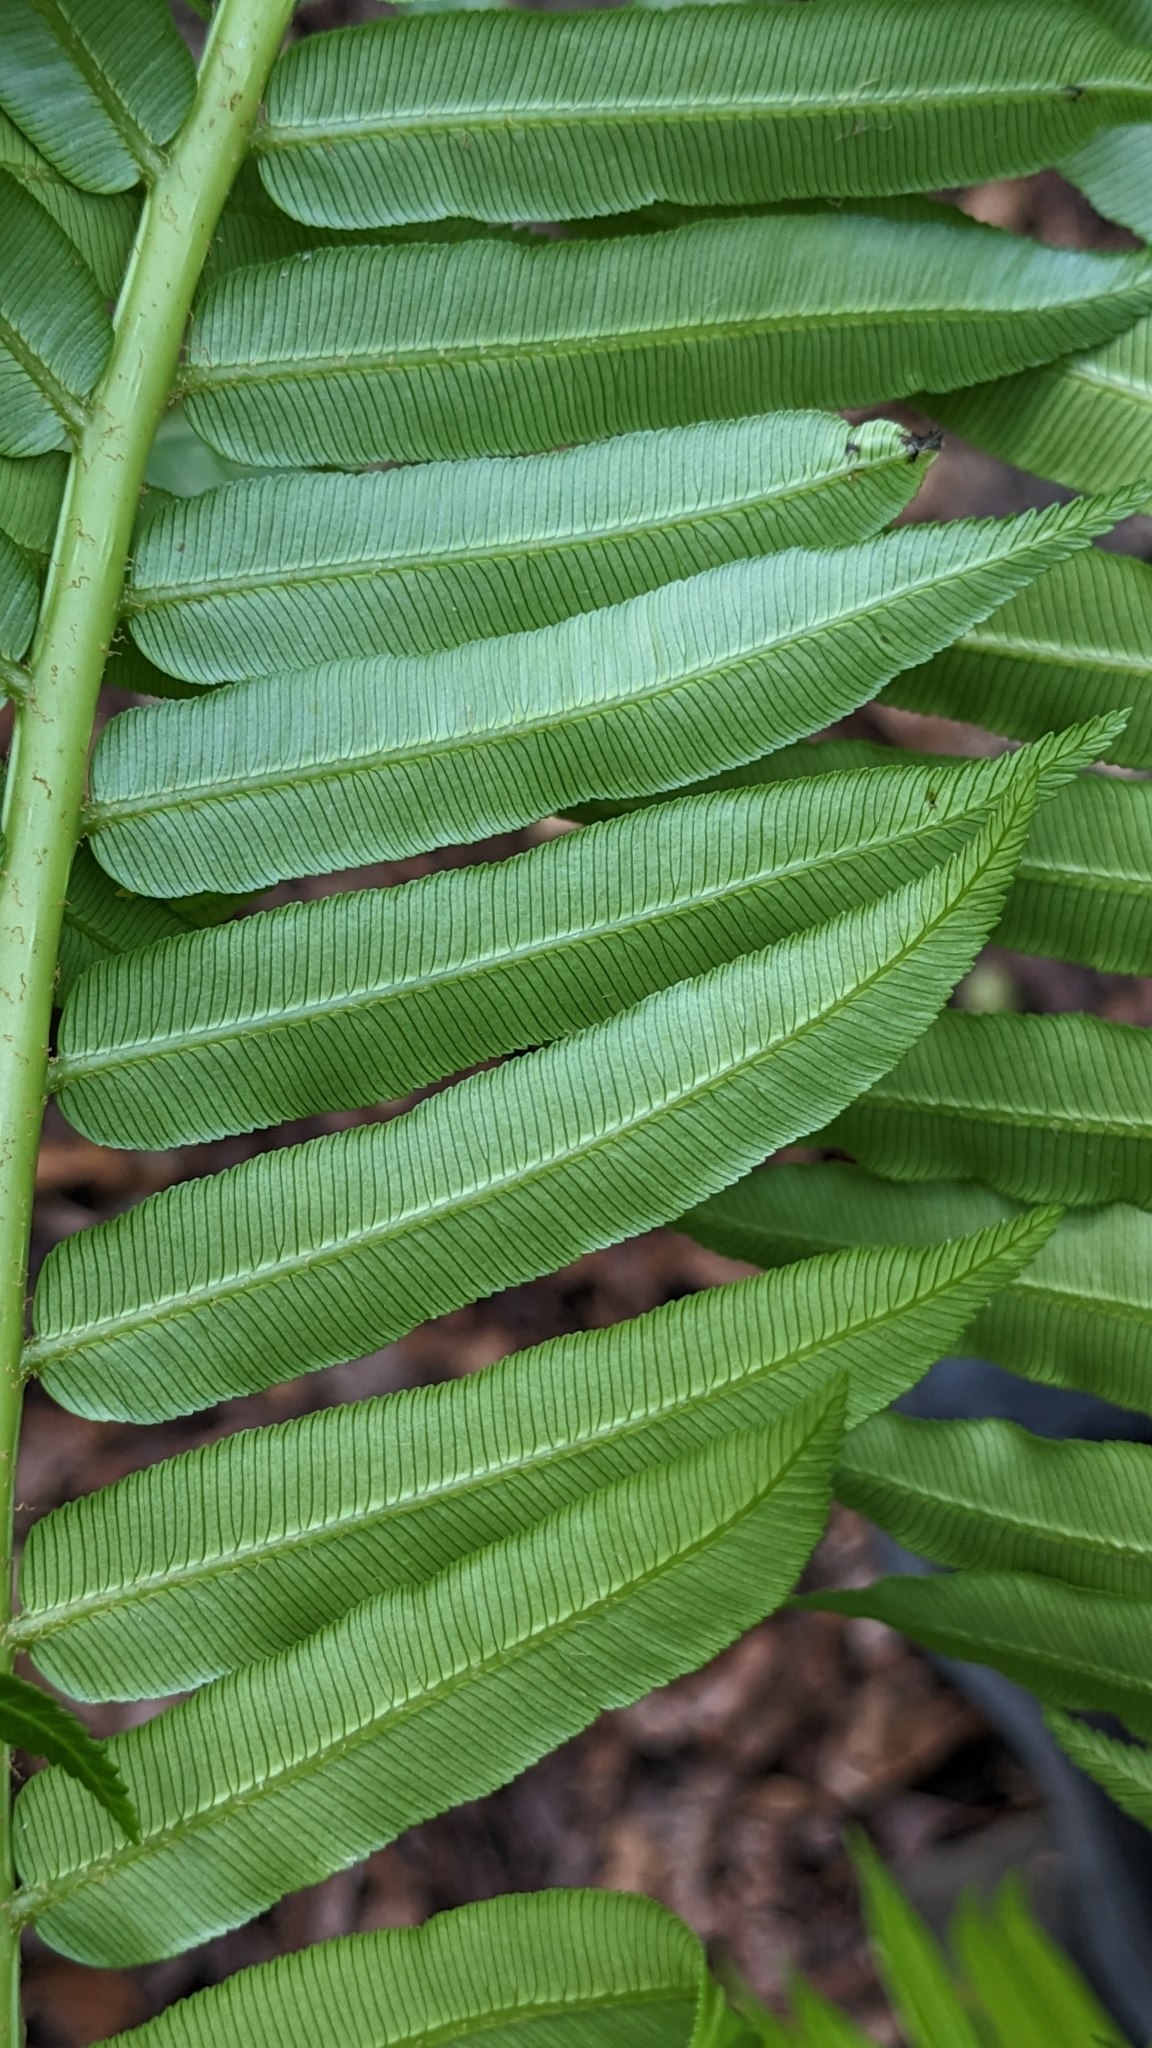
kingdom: Plantae
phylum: Tracheophyta
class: Polypodiopsida
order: Marattiales
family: Marattiaceae
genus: Angiopteris
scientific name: Angiopteris evecta
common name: Mule's-foot fern
